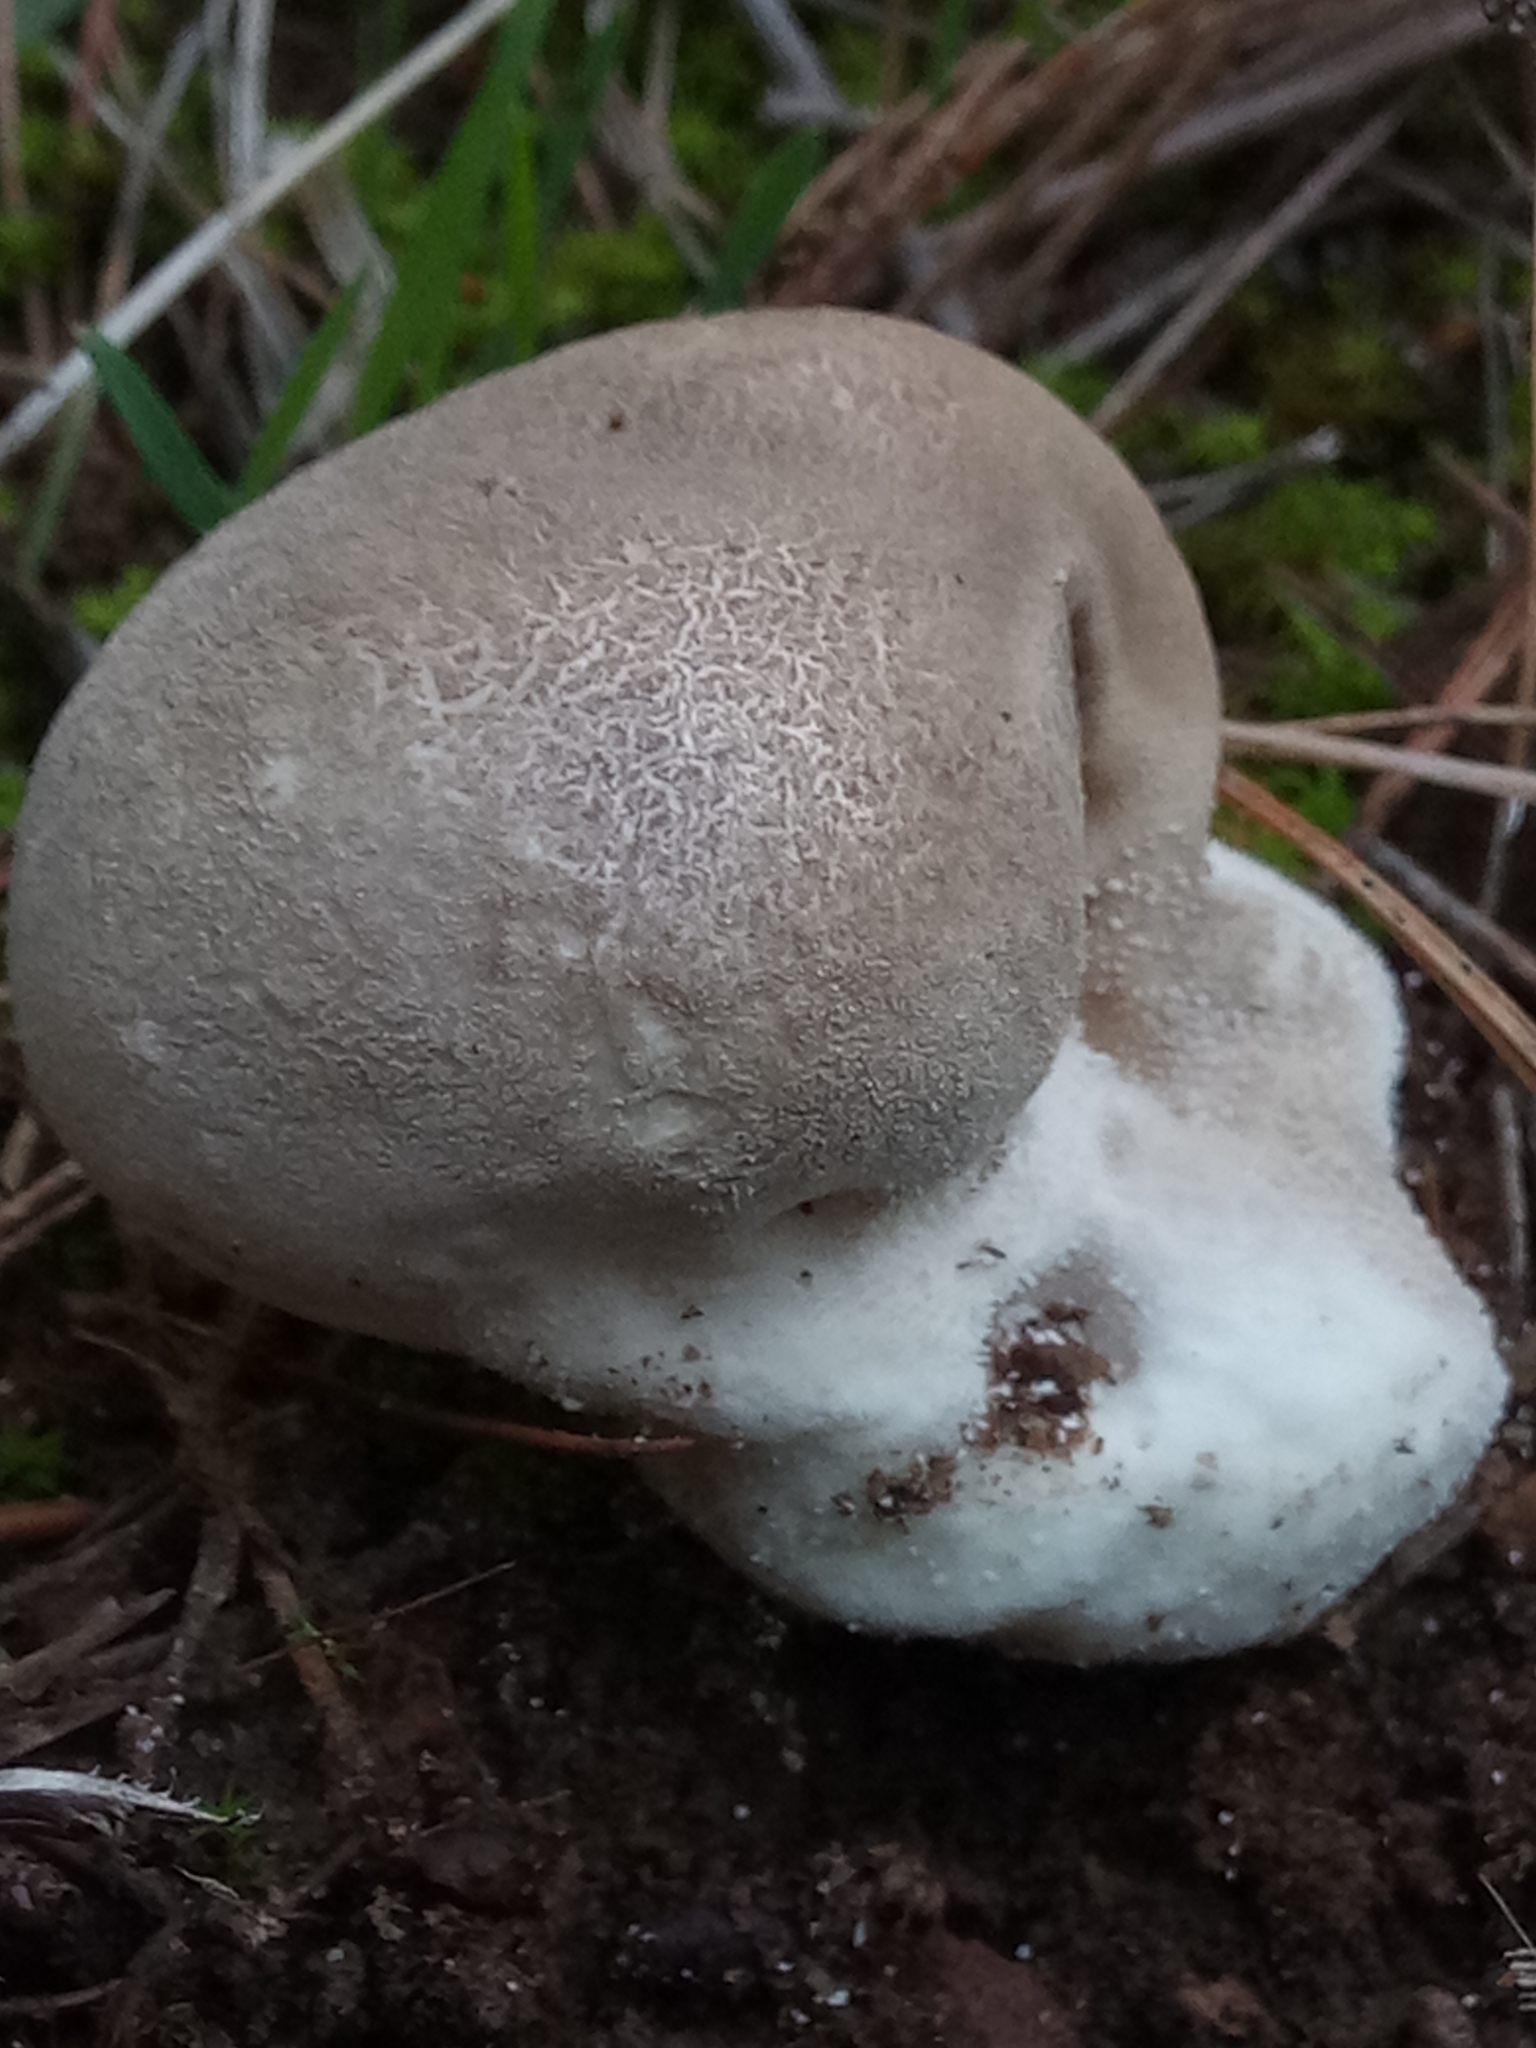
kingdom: Fungi
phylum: Basidiomycota
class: Agaricomycetes
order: Agaricales
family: Lycoperdaceae
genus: Bovistella
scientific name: Bovistella utriformis
